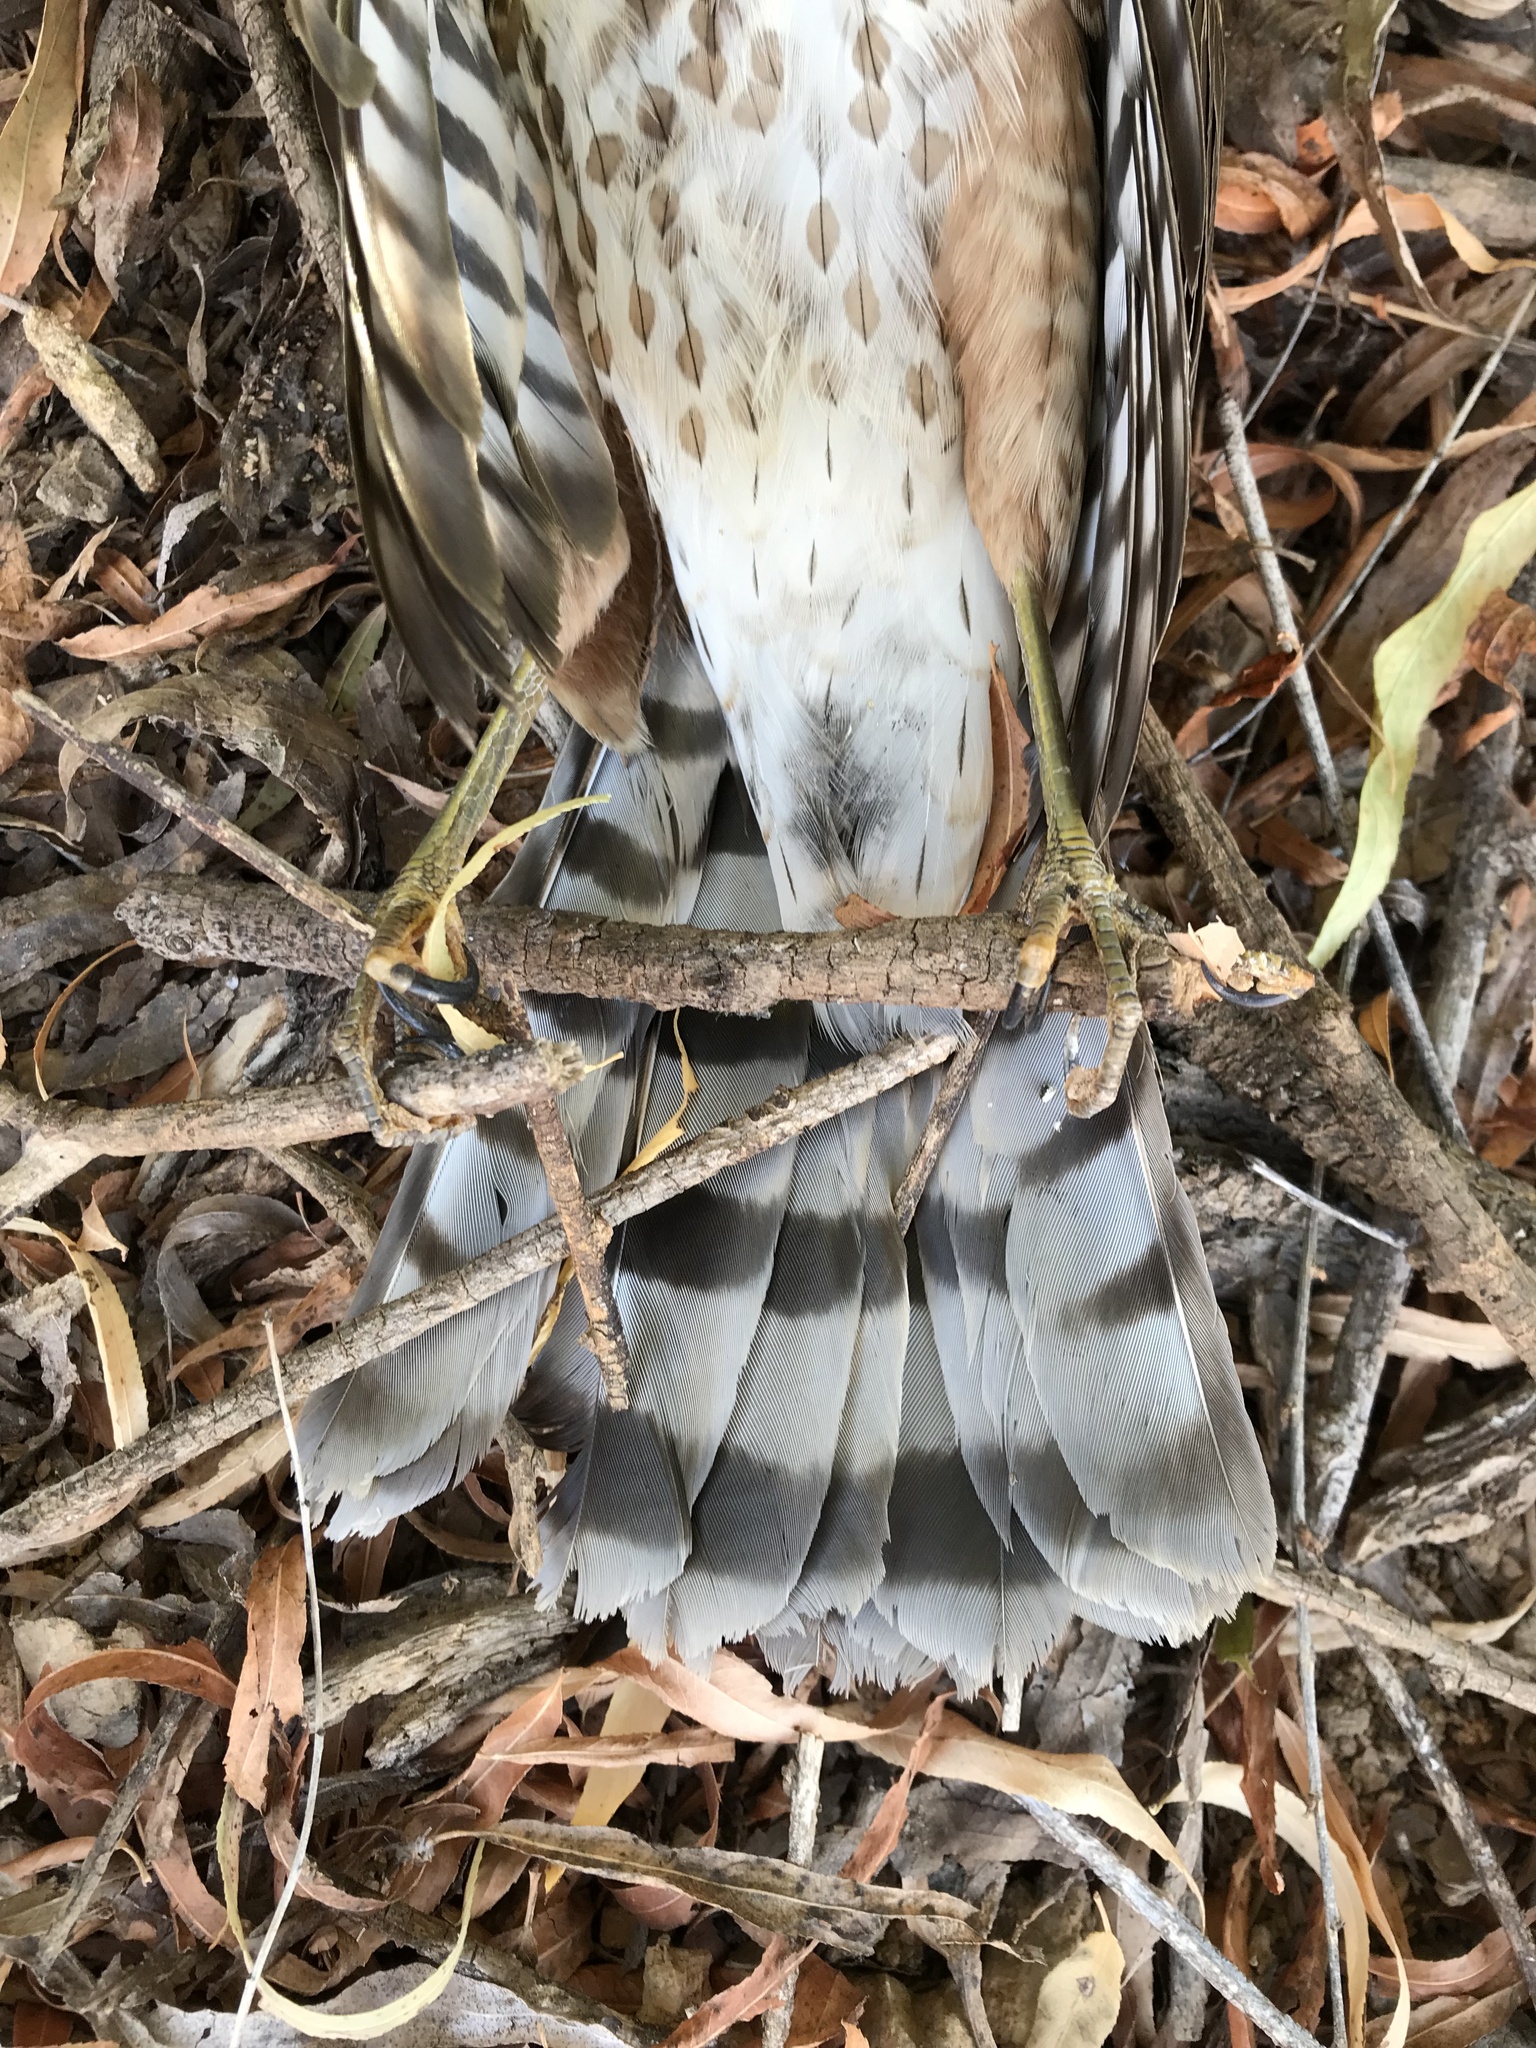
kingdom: Animalia
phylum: Chordata
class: Aves
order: Accipitriformes
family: Accipitridae
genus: Accipiter
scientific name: Accipiter striatus
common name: Sharp-shinned hawk
